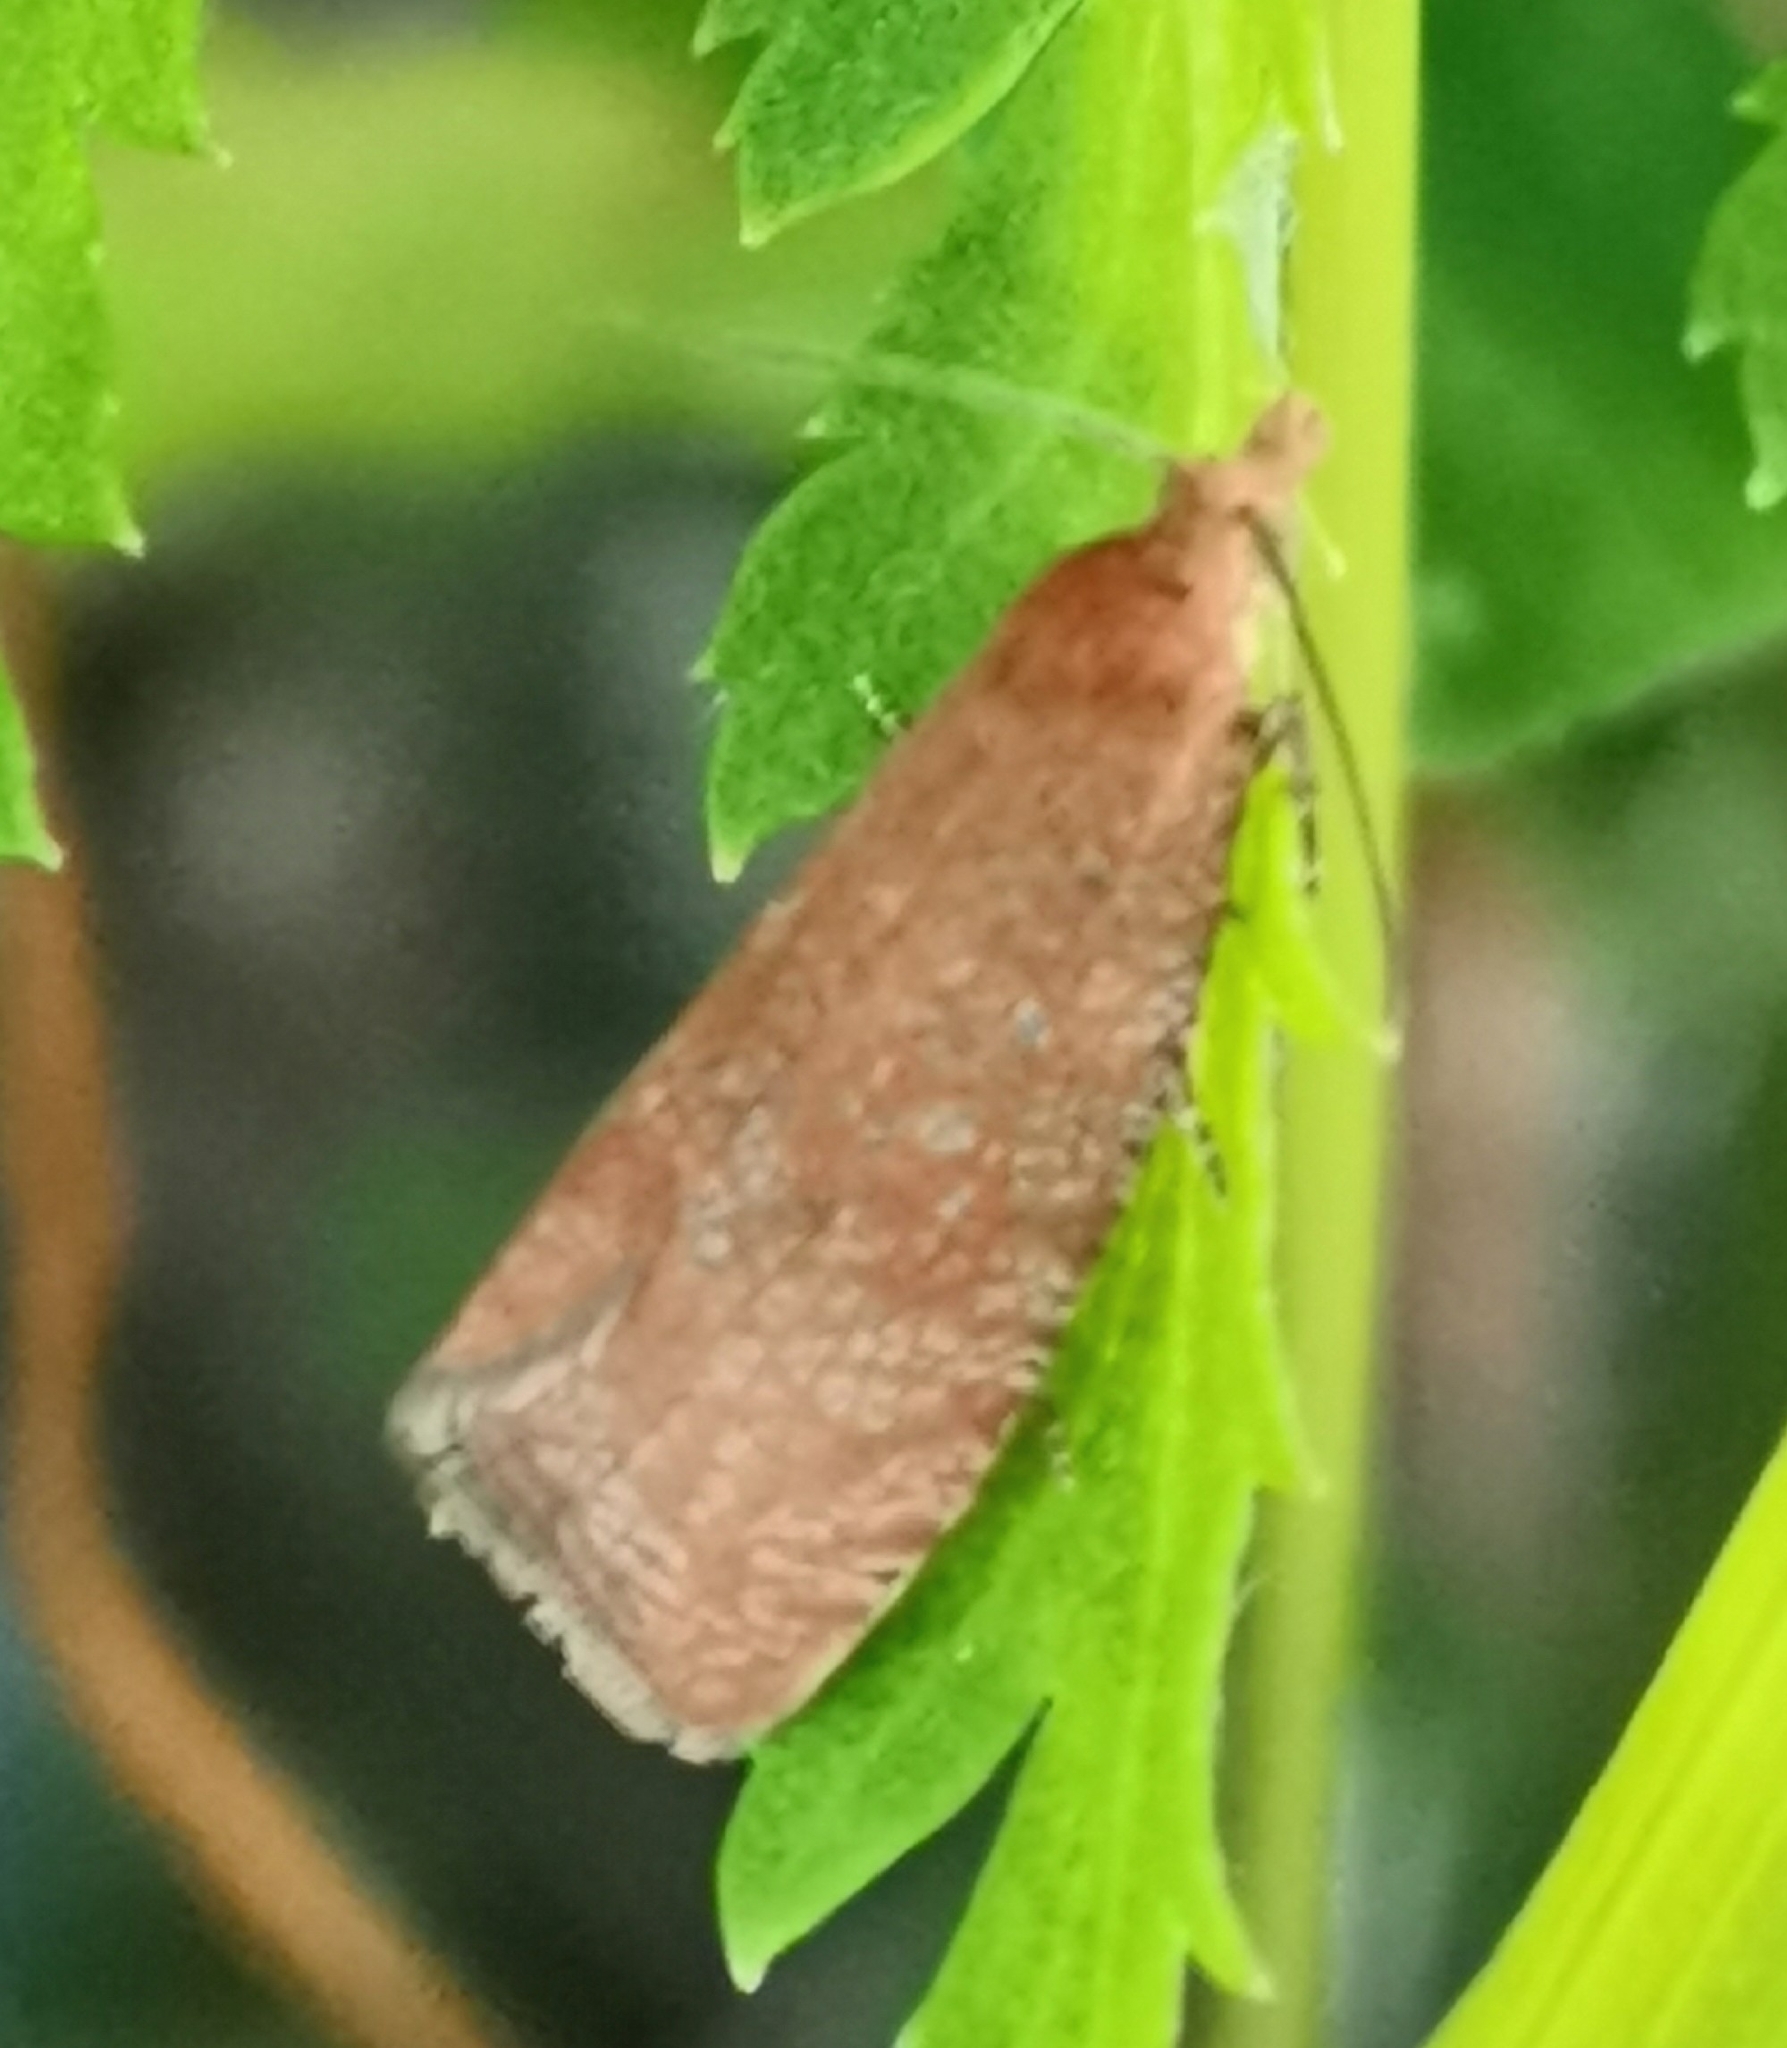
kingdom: Animalia
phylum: Arthropoda
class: Insecta
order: Lepidoptera
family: Tortricidae
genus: Celypha
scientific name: Celypha rufana
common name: Lakes marble
